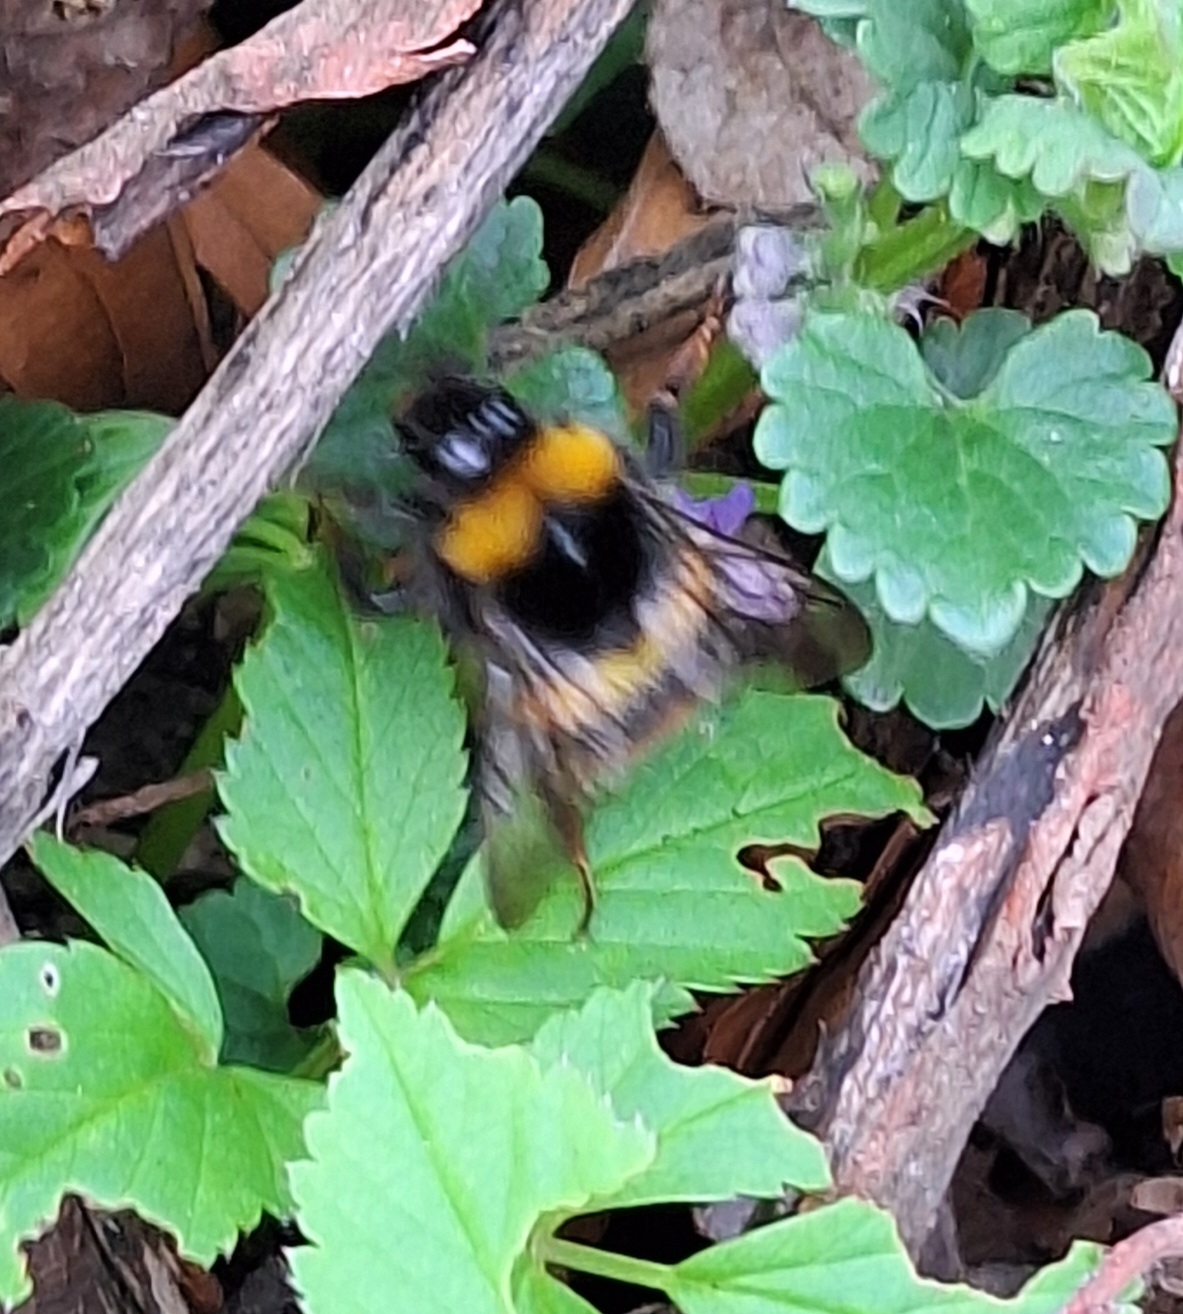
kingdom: Animalia
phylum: Arthropoda
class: Insecta
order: Hymenoptera
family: Apidae
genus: Bombus
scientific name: Bombus pratorum
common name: Early humble-bee
